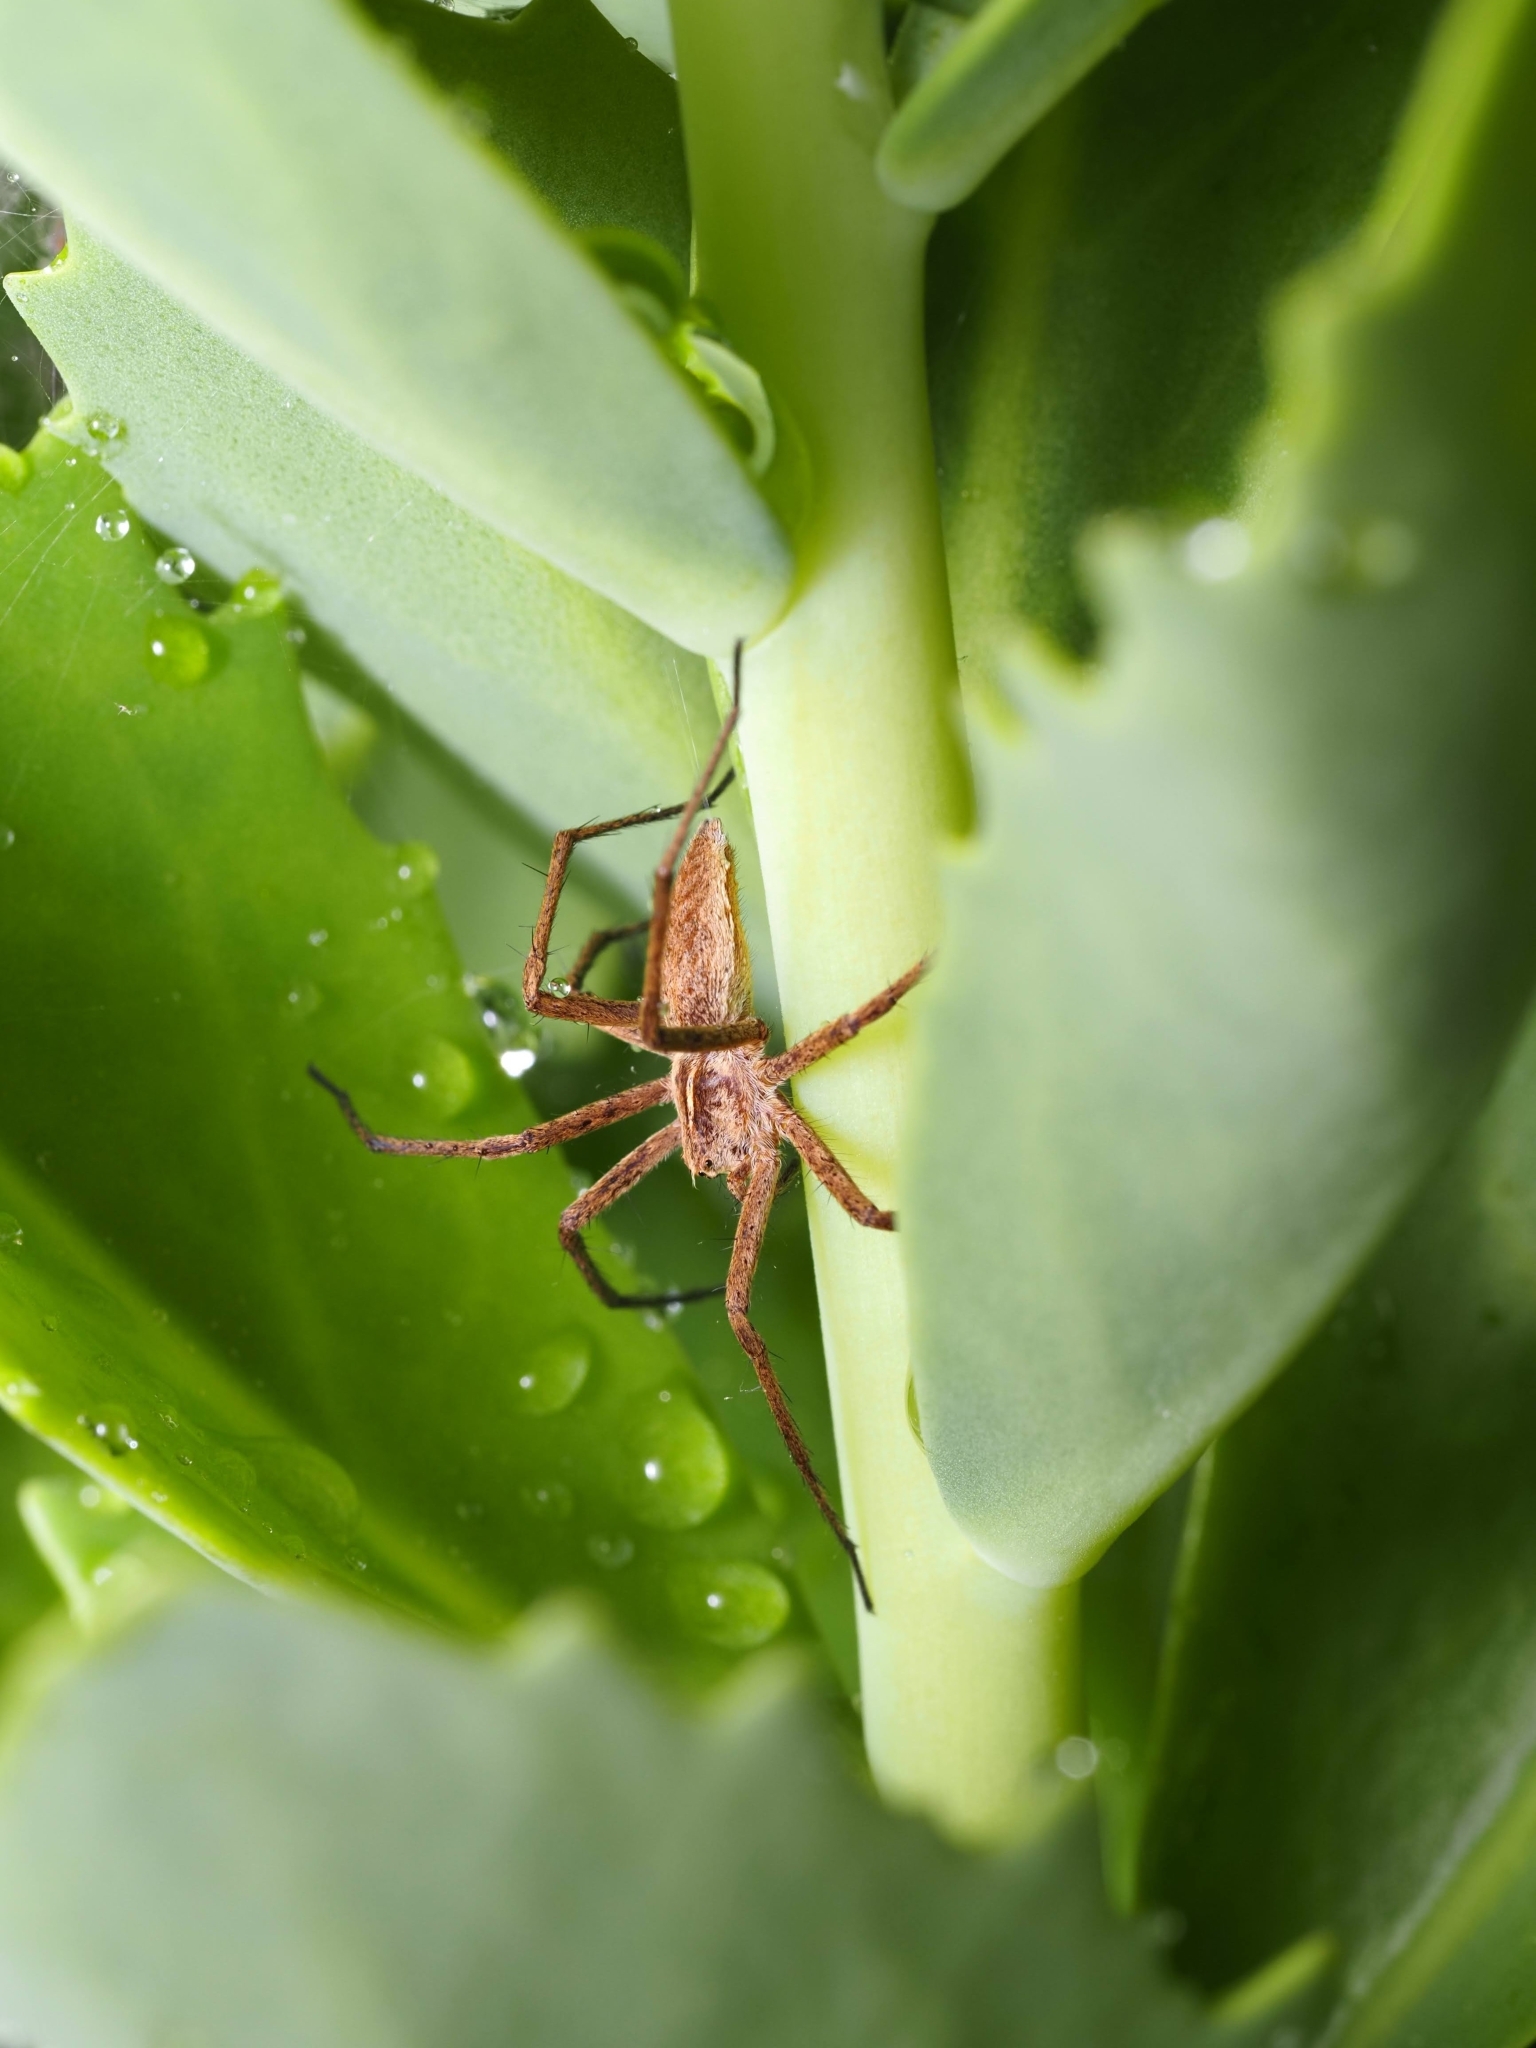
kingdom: Animalia
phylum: Arthropoda
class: Arachnida
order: Araneae
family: Pisauridae
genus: Pisaura
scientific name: Pisaura mirabilis
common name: Tent spider
